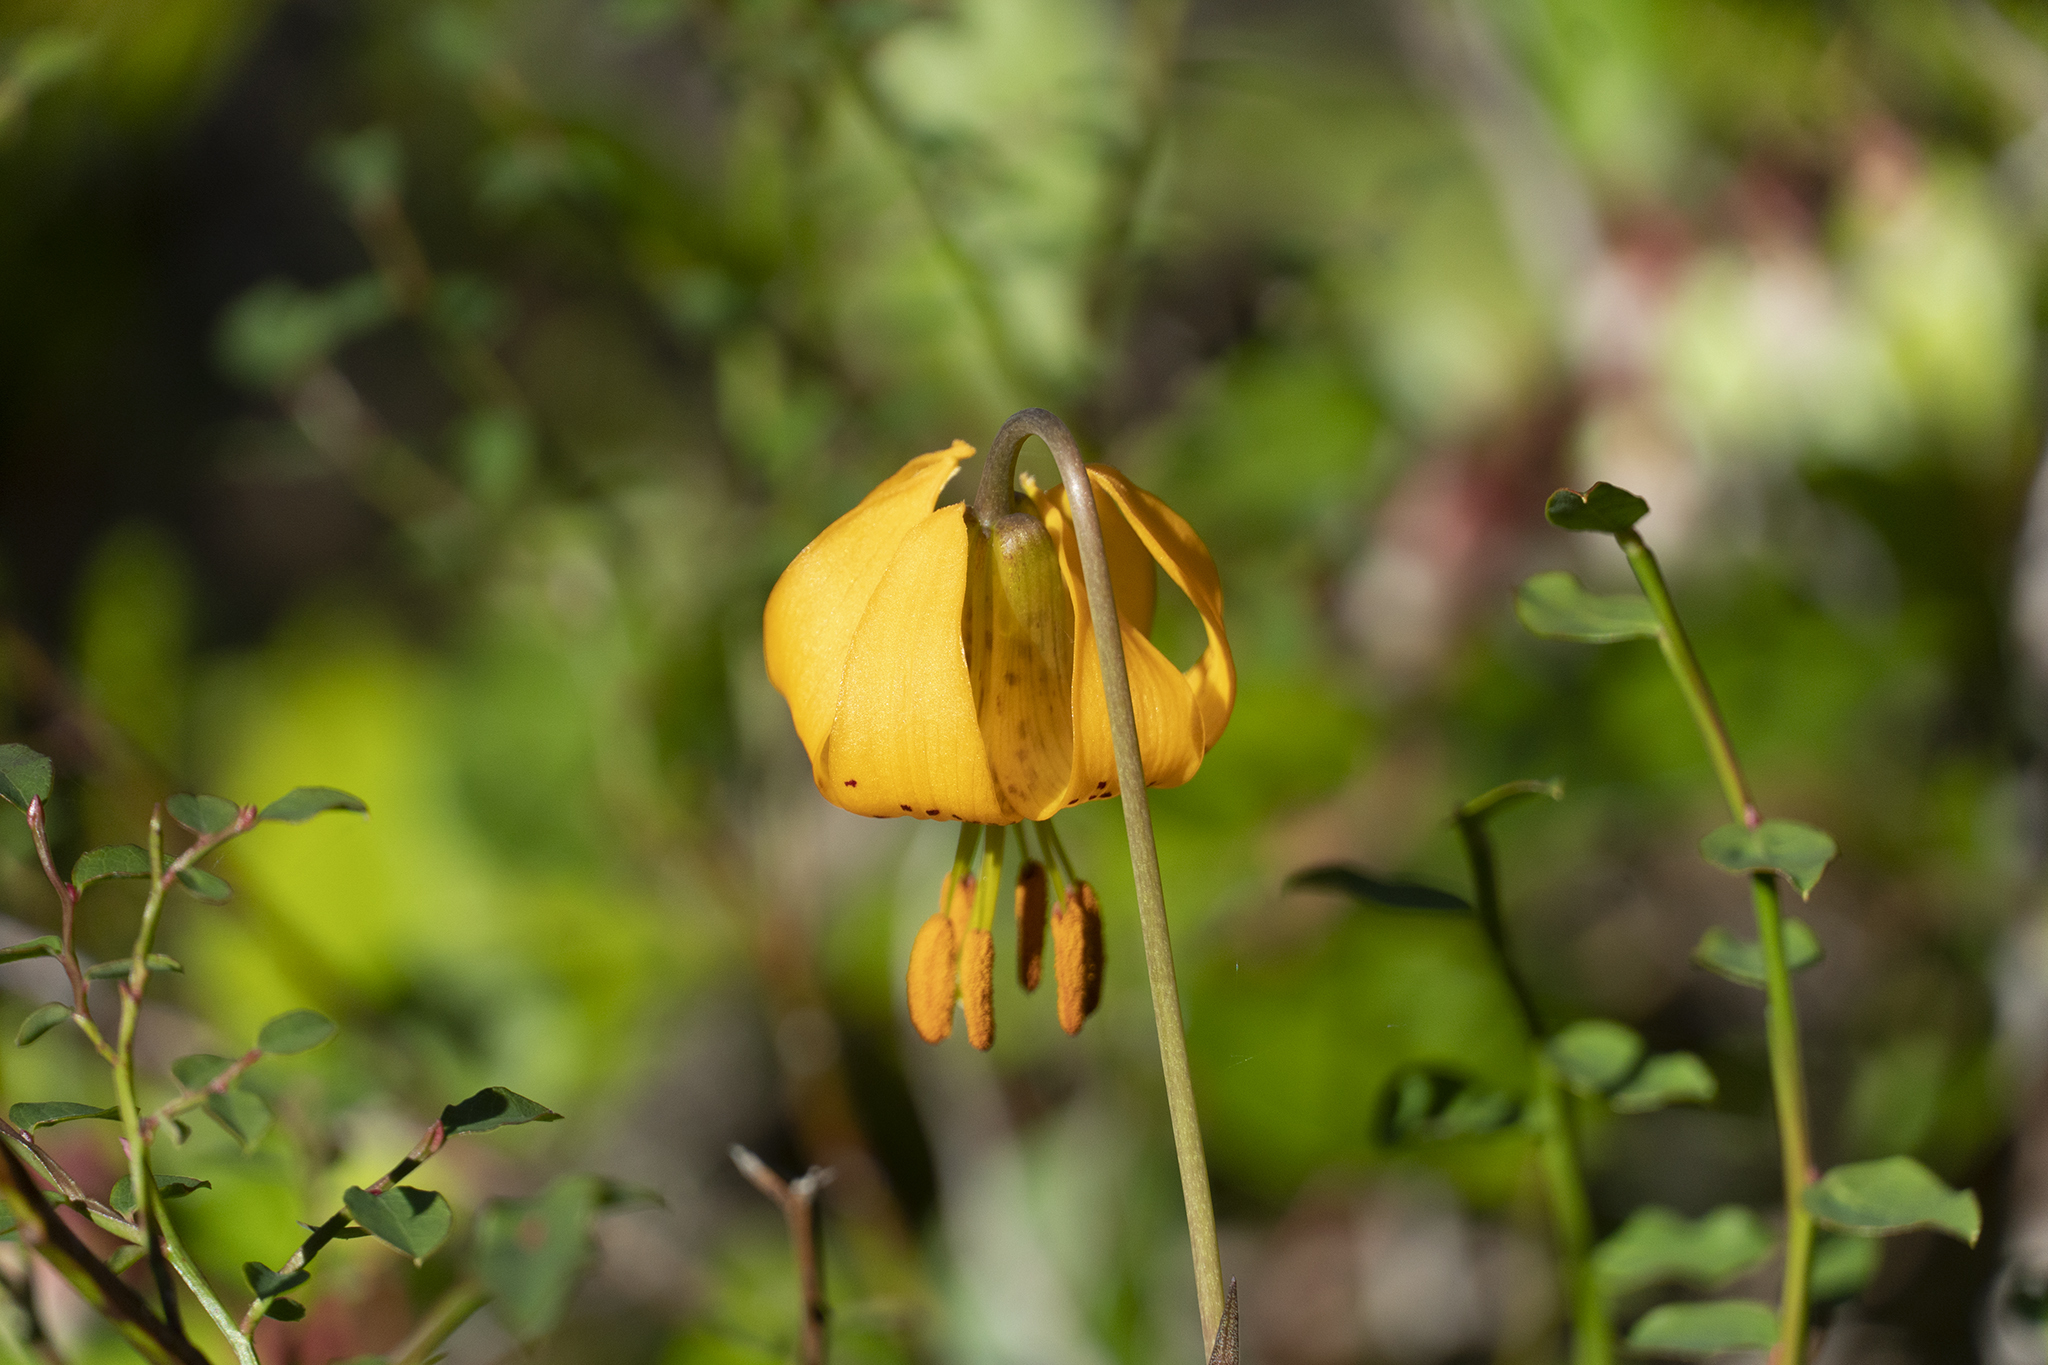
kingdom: Plantae
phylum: Tracheophyta
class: Liliopsida
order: Liliales
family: Liliaceae
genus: Lilium
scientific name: Lilium columbianum
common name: Columbia lily
